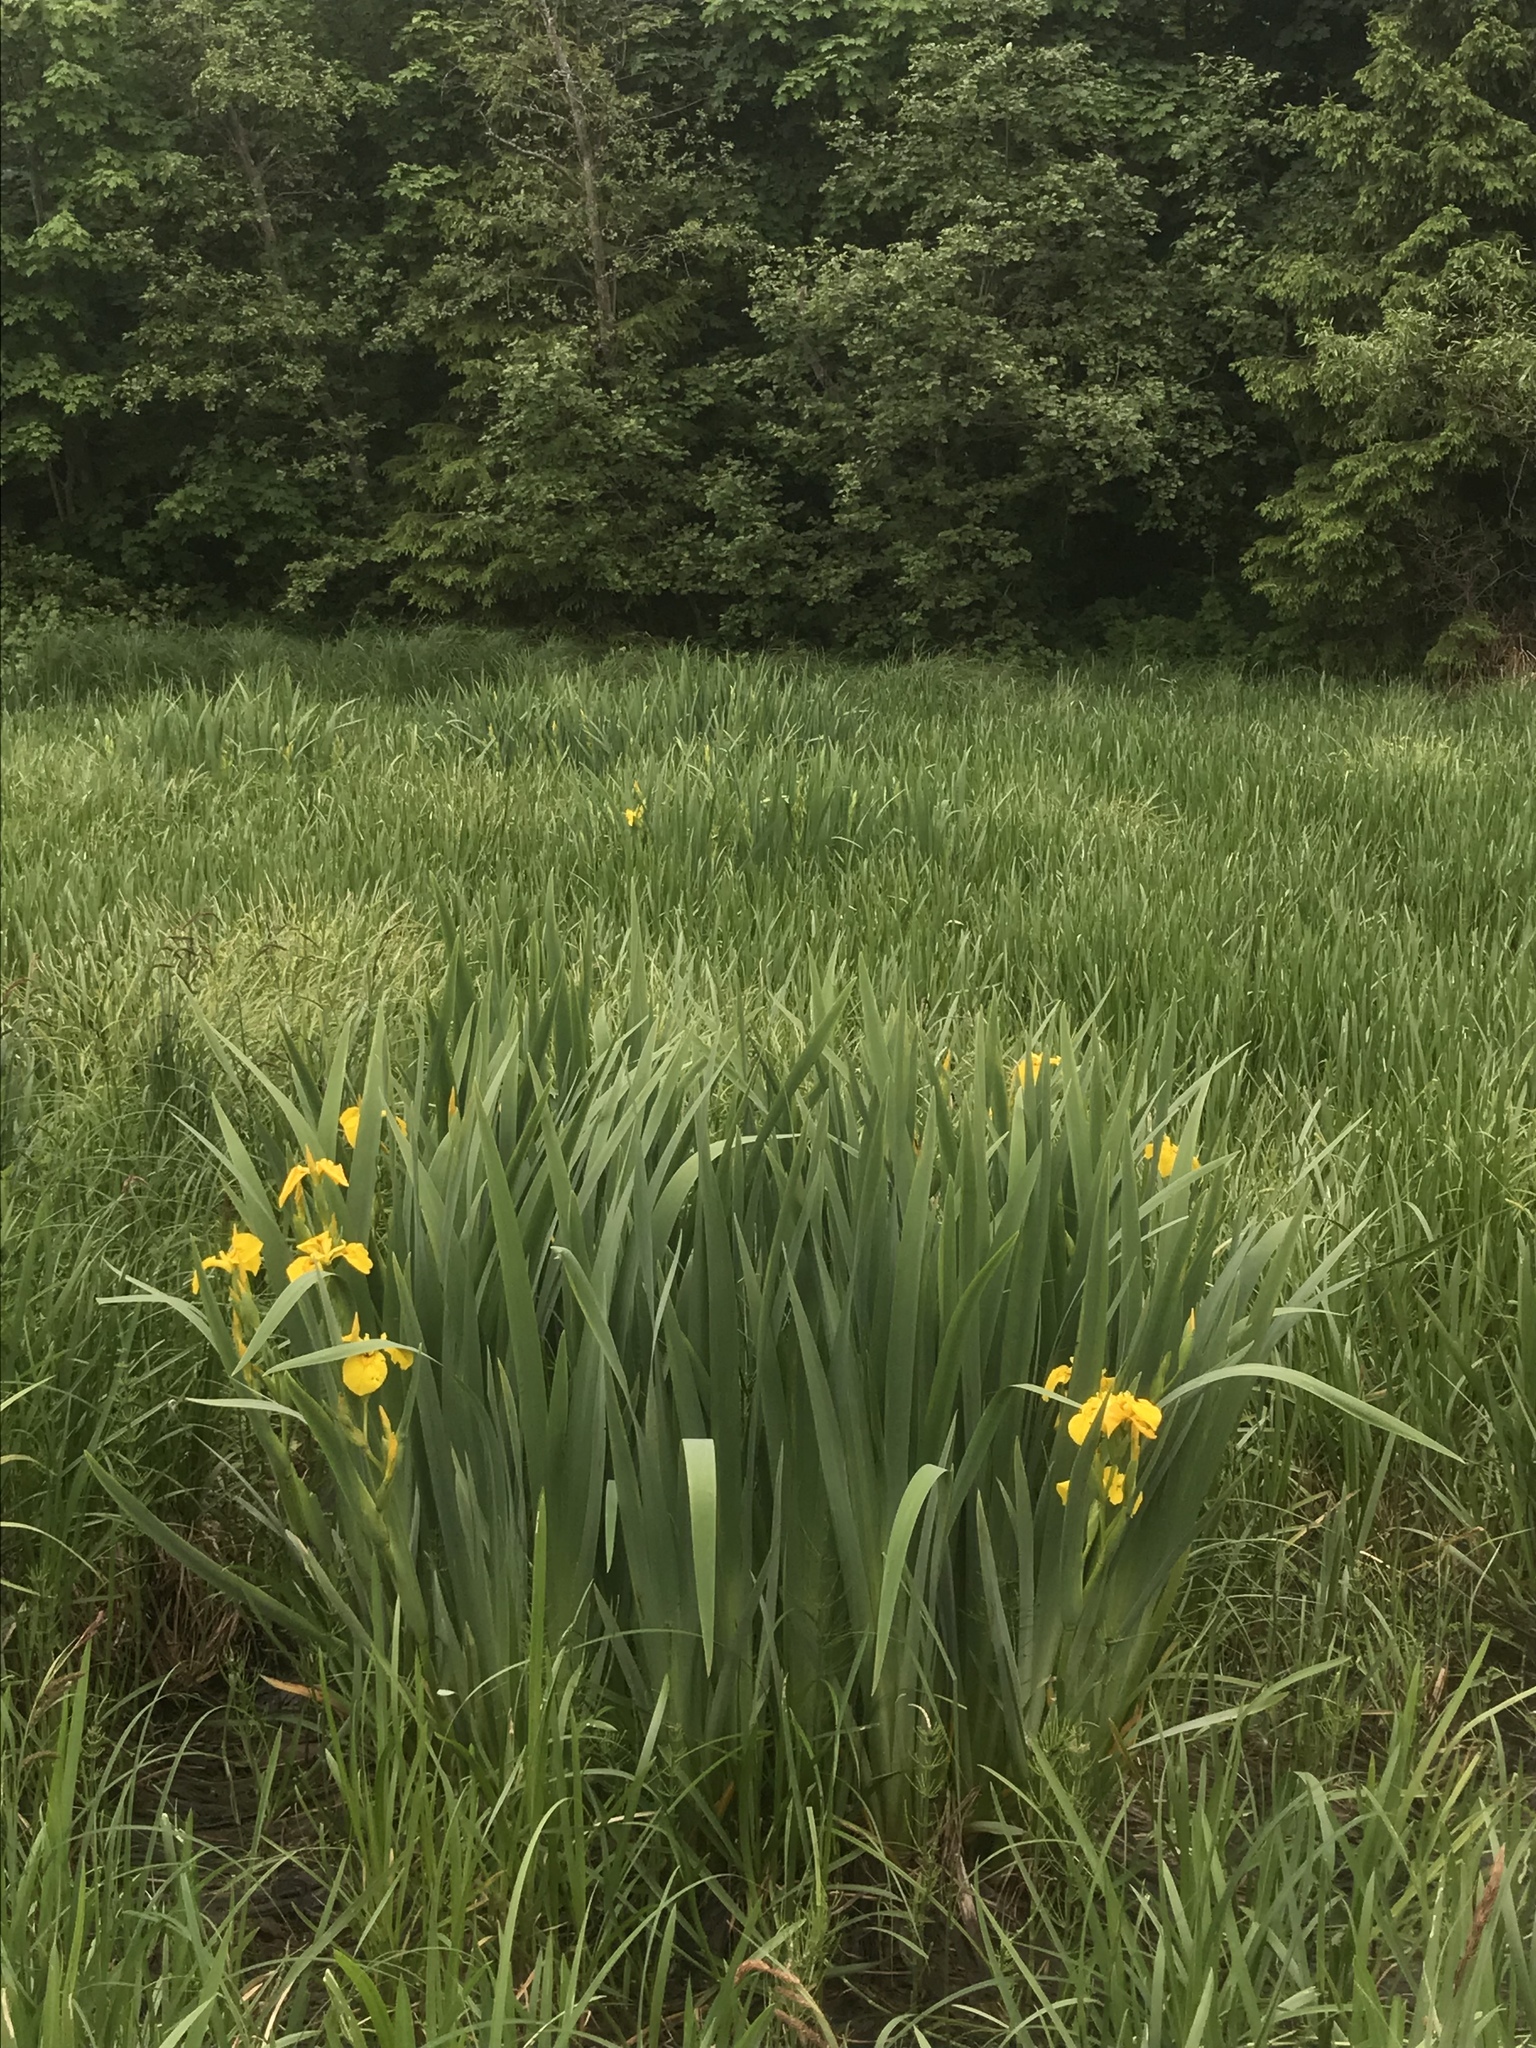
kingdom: Plantae
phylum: Tracheophyta
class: Liliopsida
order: Asparagales
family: Iridaceae
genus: Iris
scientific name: Iris pseudacorus
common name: Yellow flag
